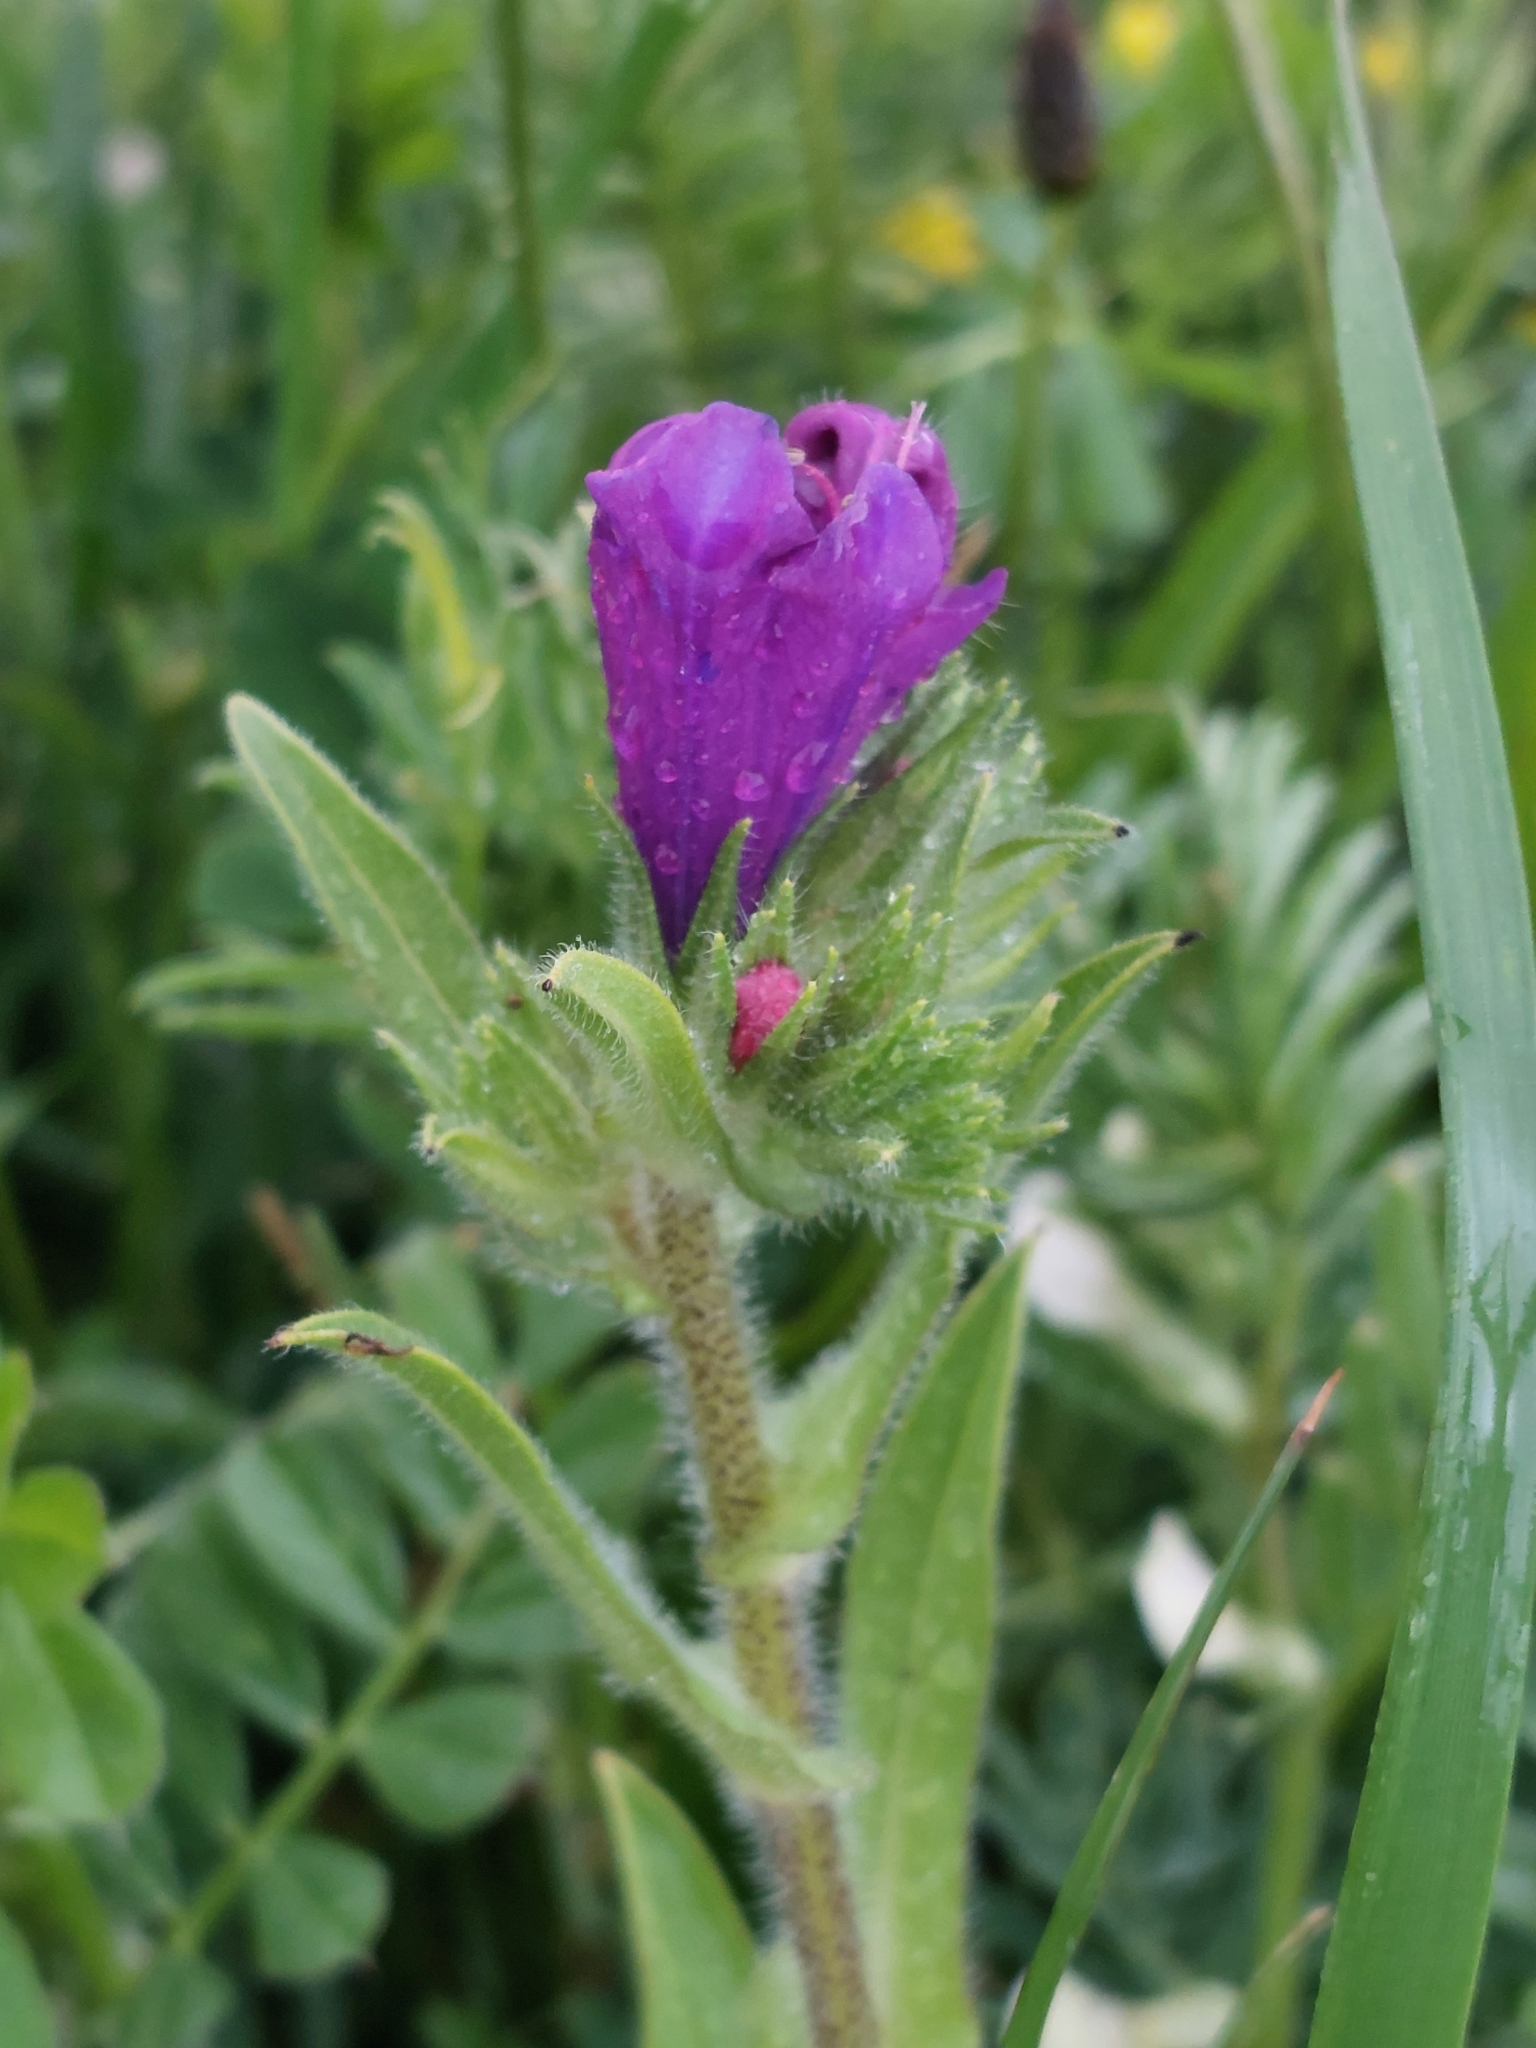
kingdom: Plantae
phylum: Tracheophyta
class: Magnoliopsida
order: Boraginales
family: Boraginaceae
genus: Echium
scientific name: Echium plantagineum
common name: Purple viper's-bugloss
